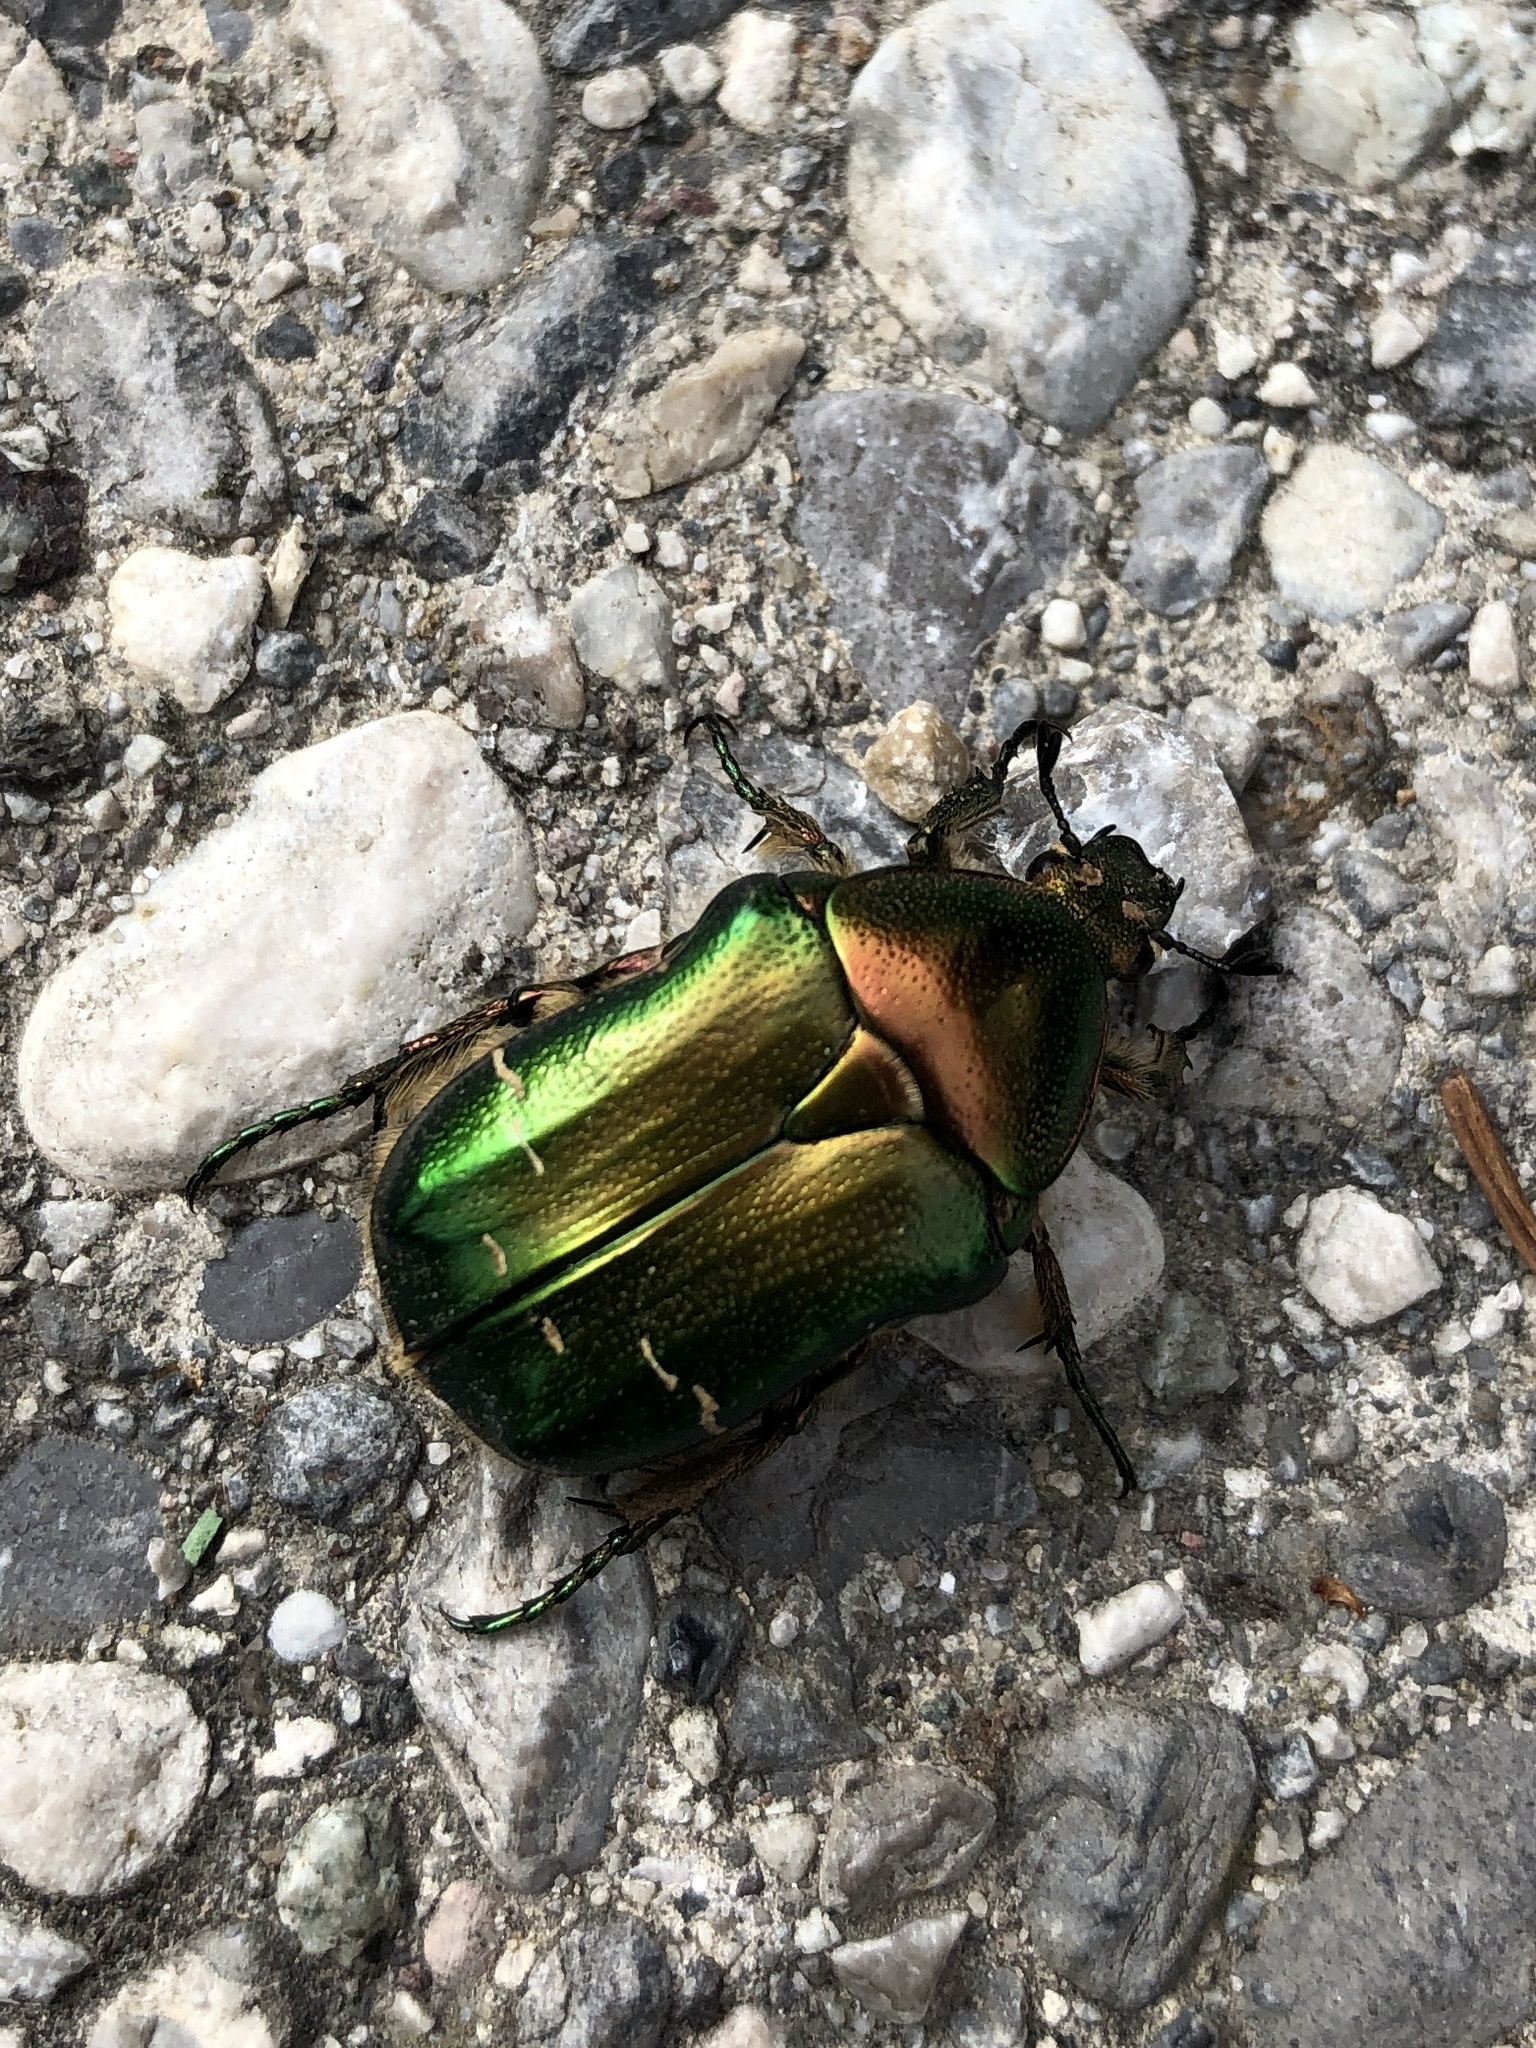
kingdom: Animalia
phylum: Arthropoda
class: Insecta
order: Coleoptera
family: Scarabaeidae
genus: Cetonia
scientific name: Cetonia aurata
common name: Rose chafer
